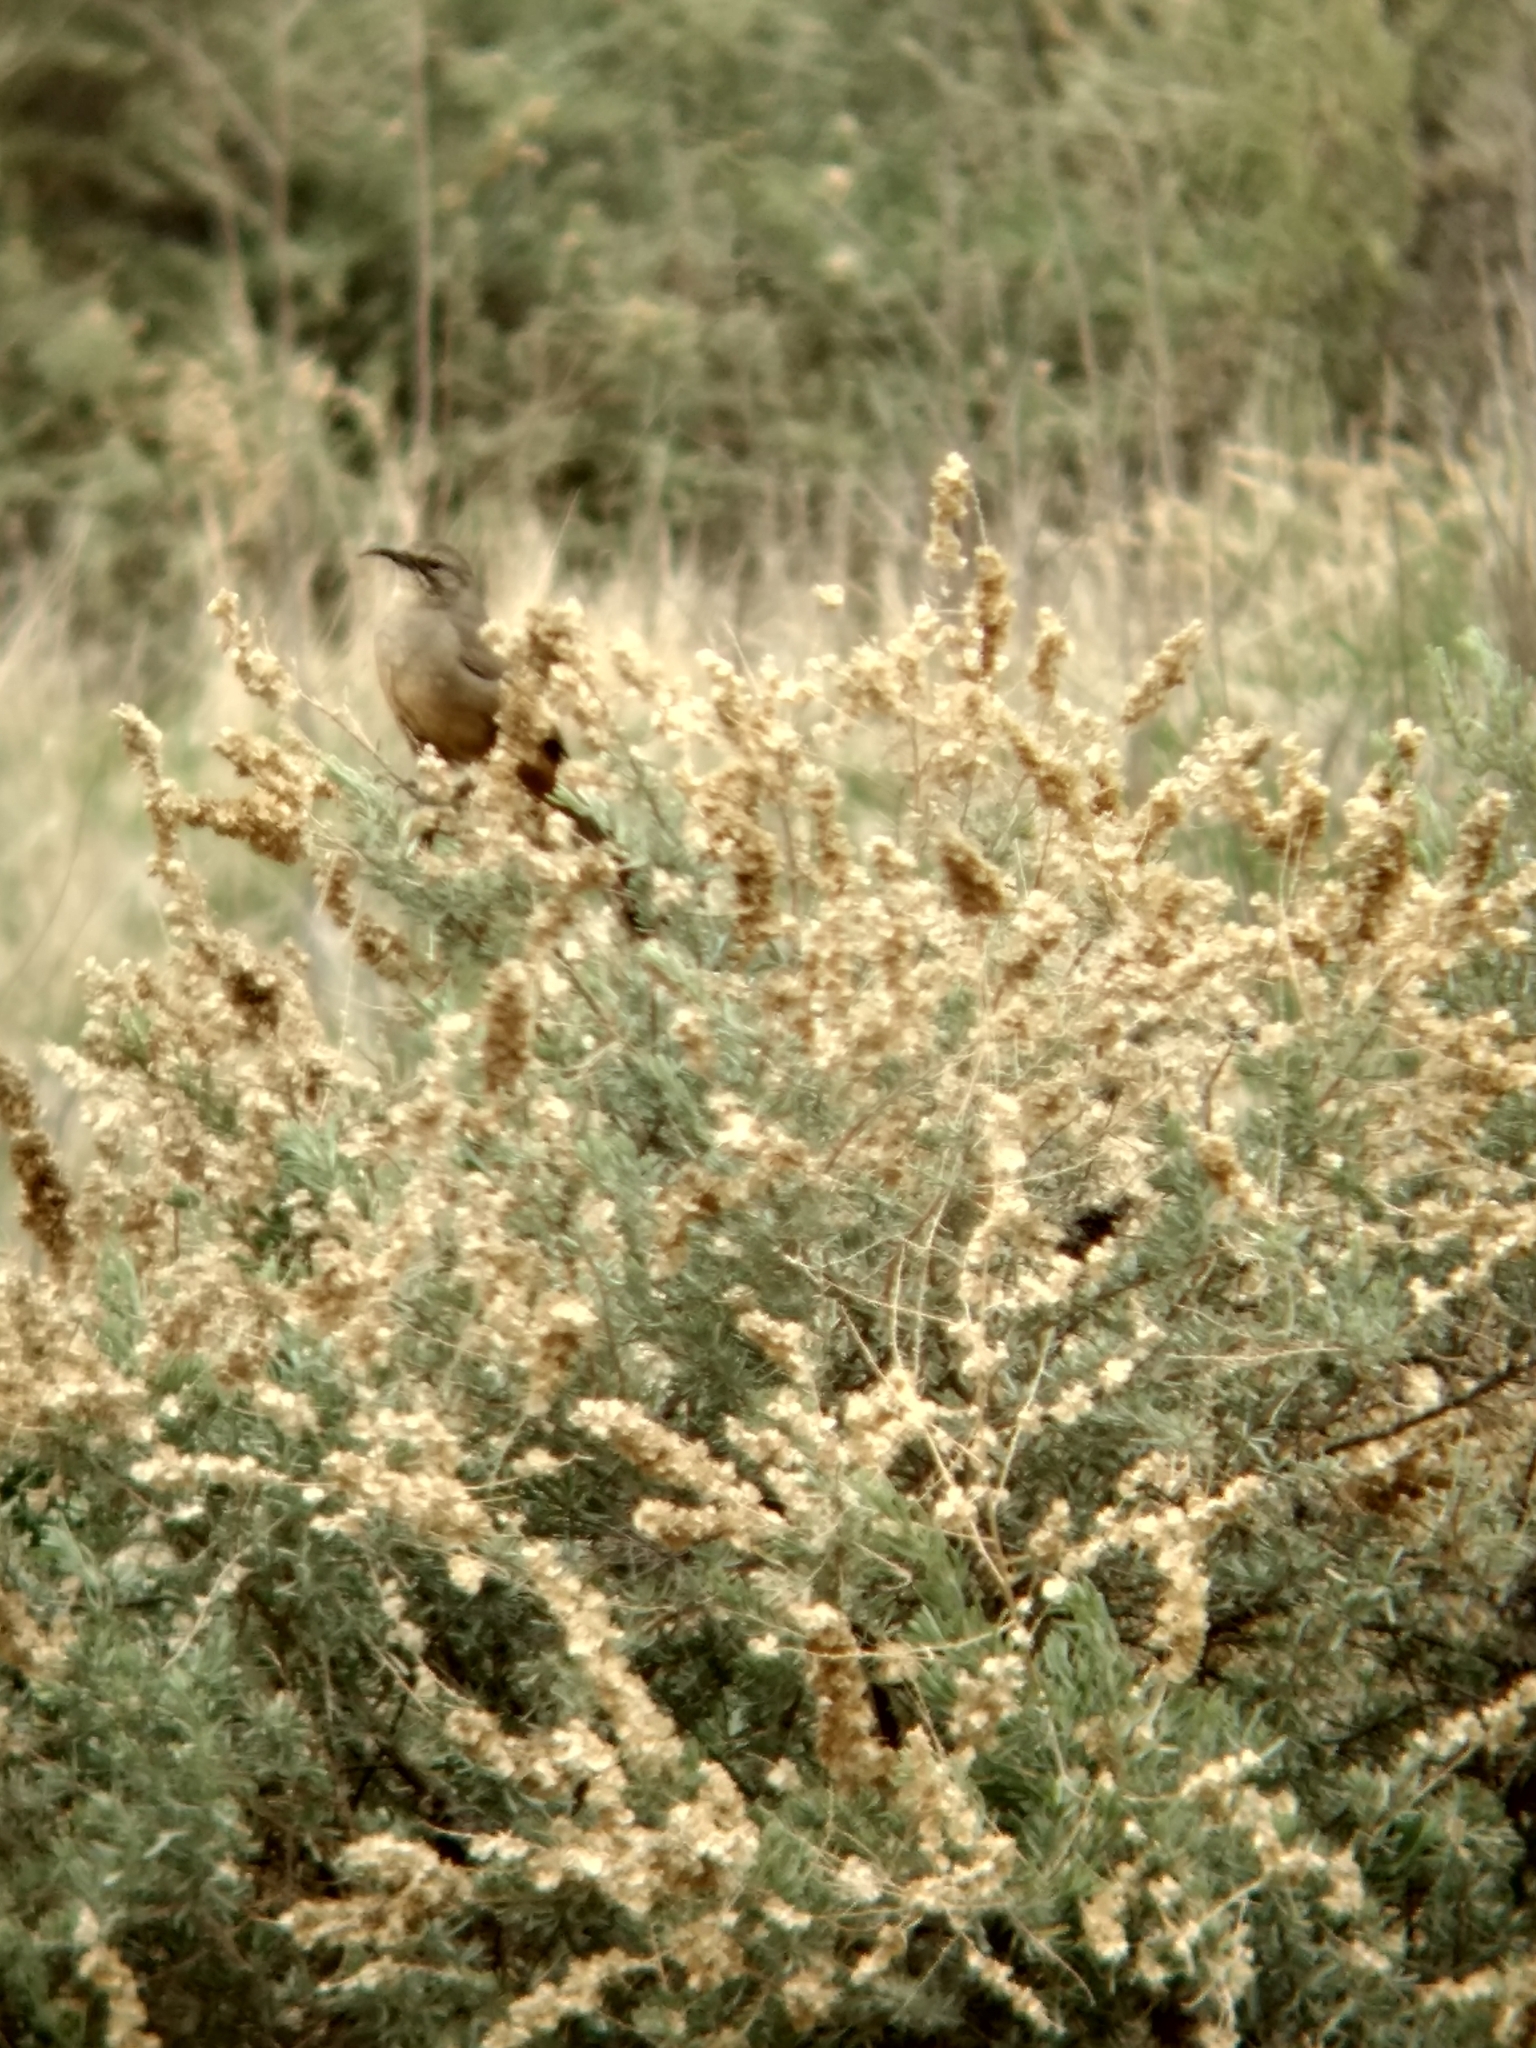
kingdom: Animalia
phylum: Chordata
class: Aves
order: Passeriformes
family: Mimidae
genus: Toxostoma
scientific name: Toxostoma redivivum
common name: California thrasher
